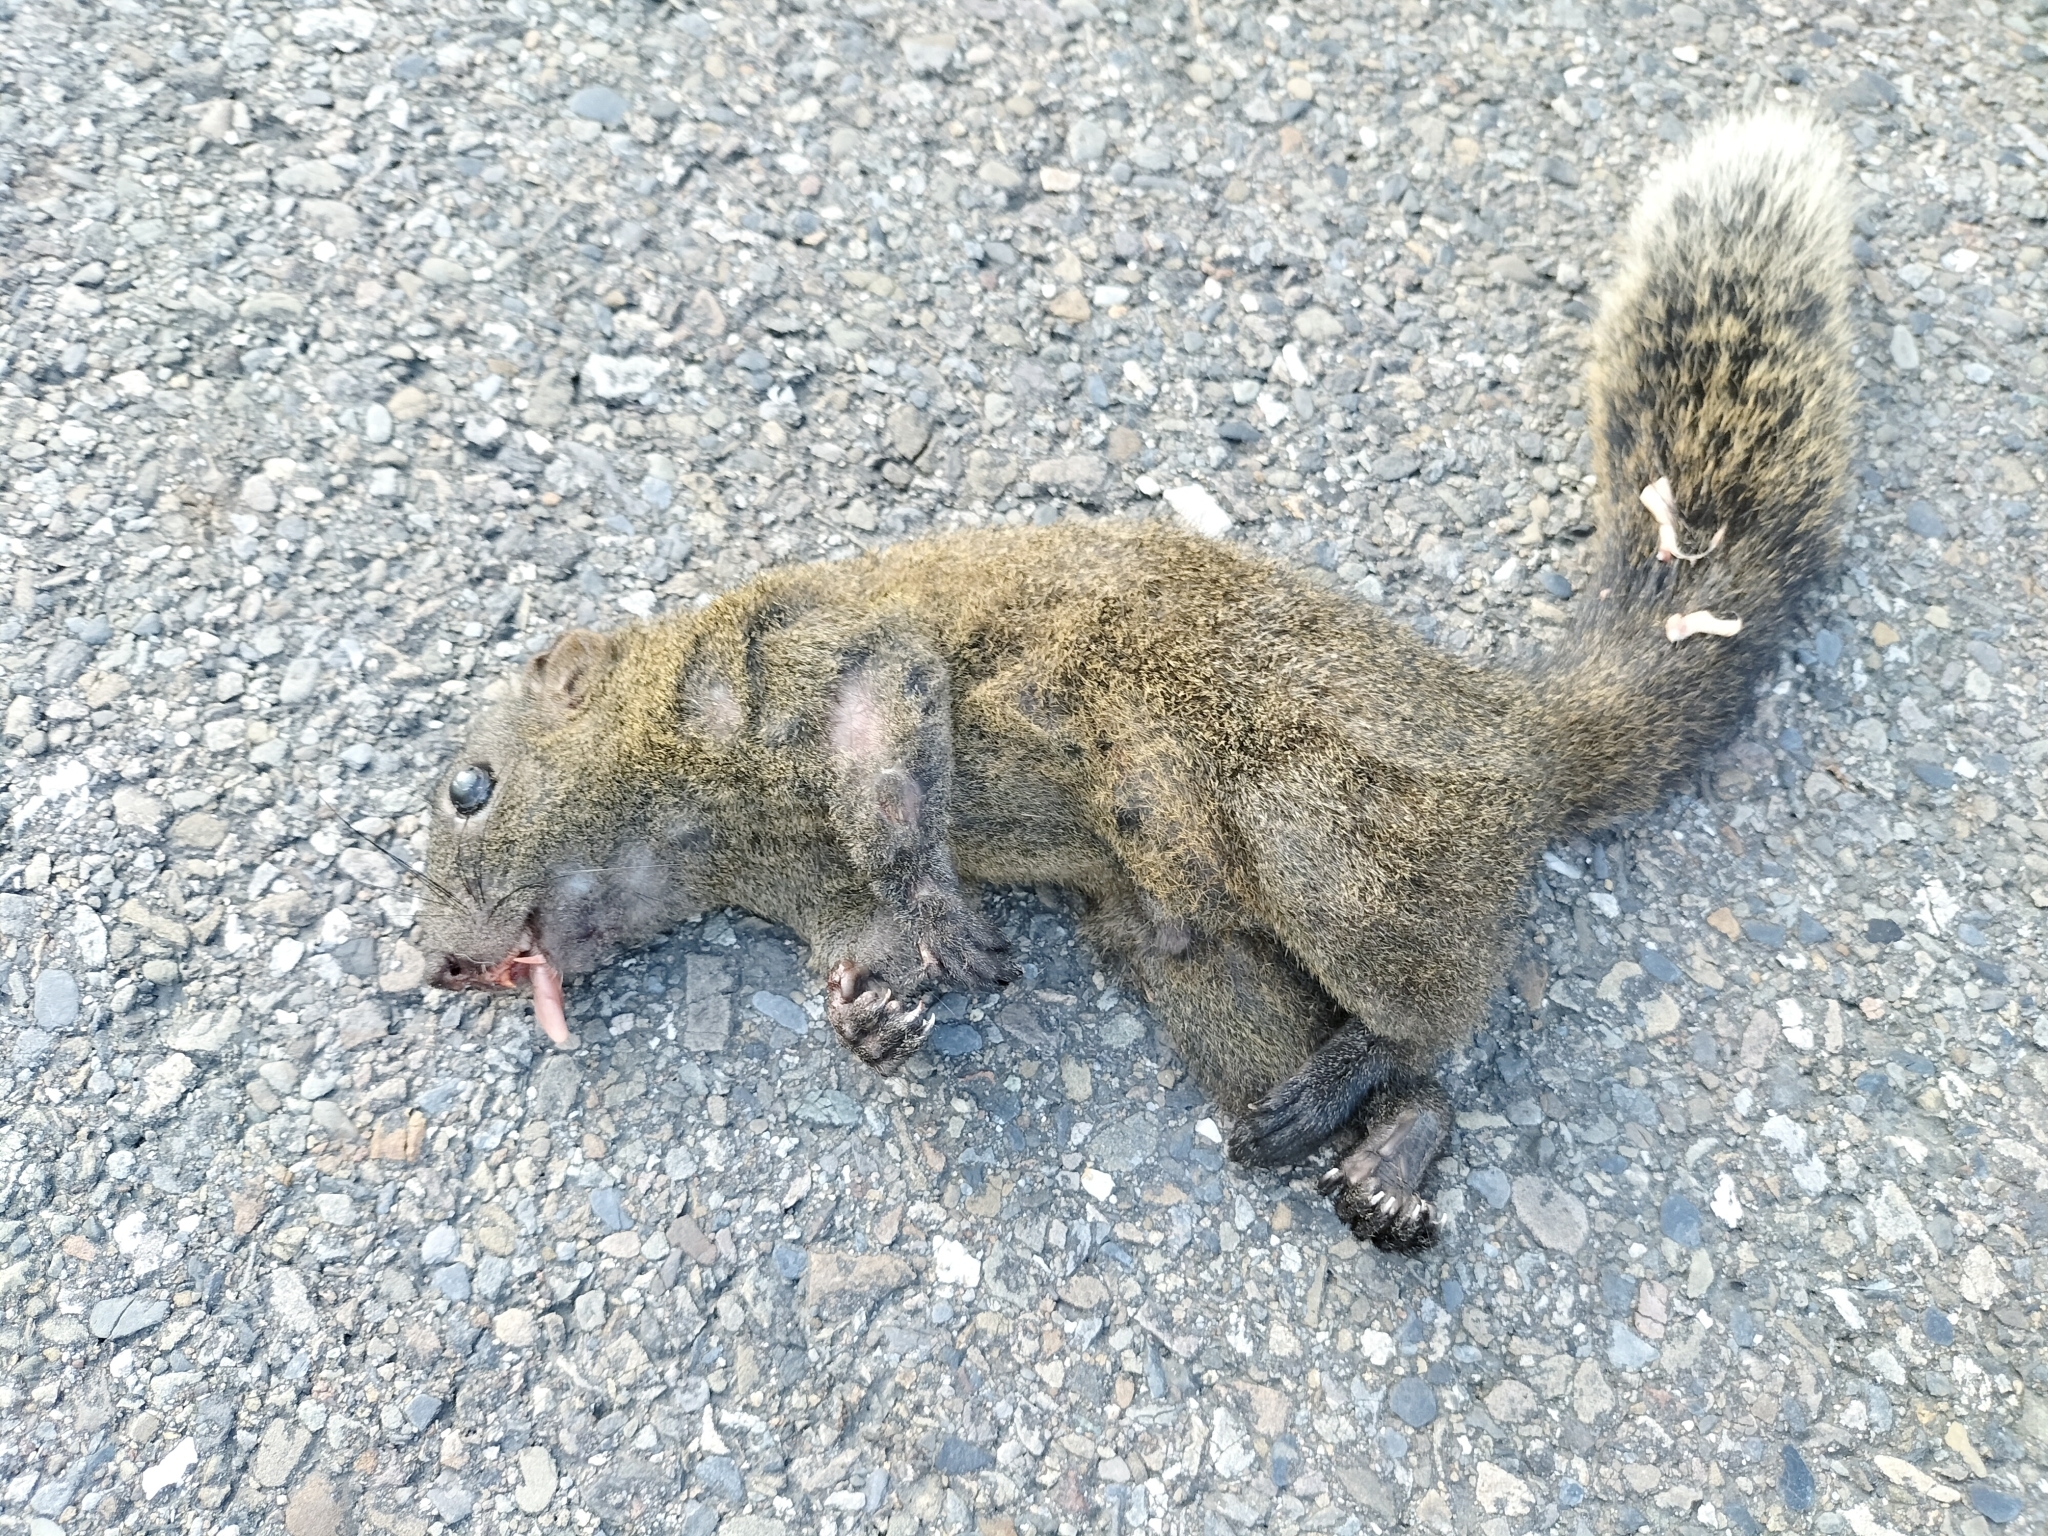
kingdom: Animalia
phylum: Chordata
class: Mammalia
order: Rodentia
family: Sciuridae
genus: Callosciurus
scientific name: Callosciurus erythraeus
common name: Pallas's squirrel
